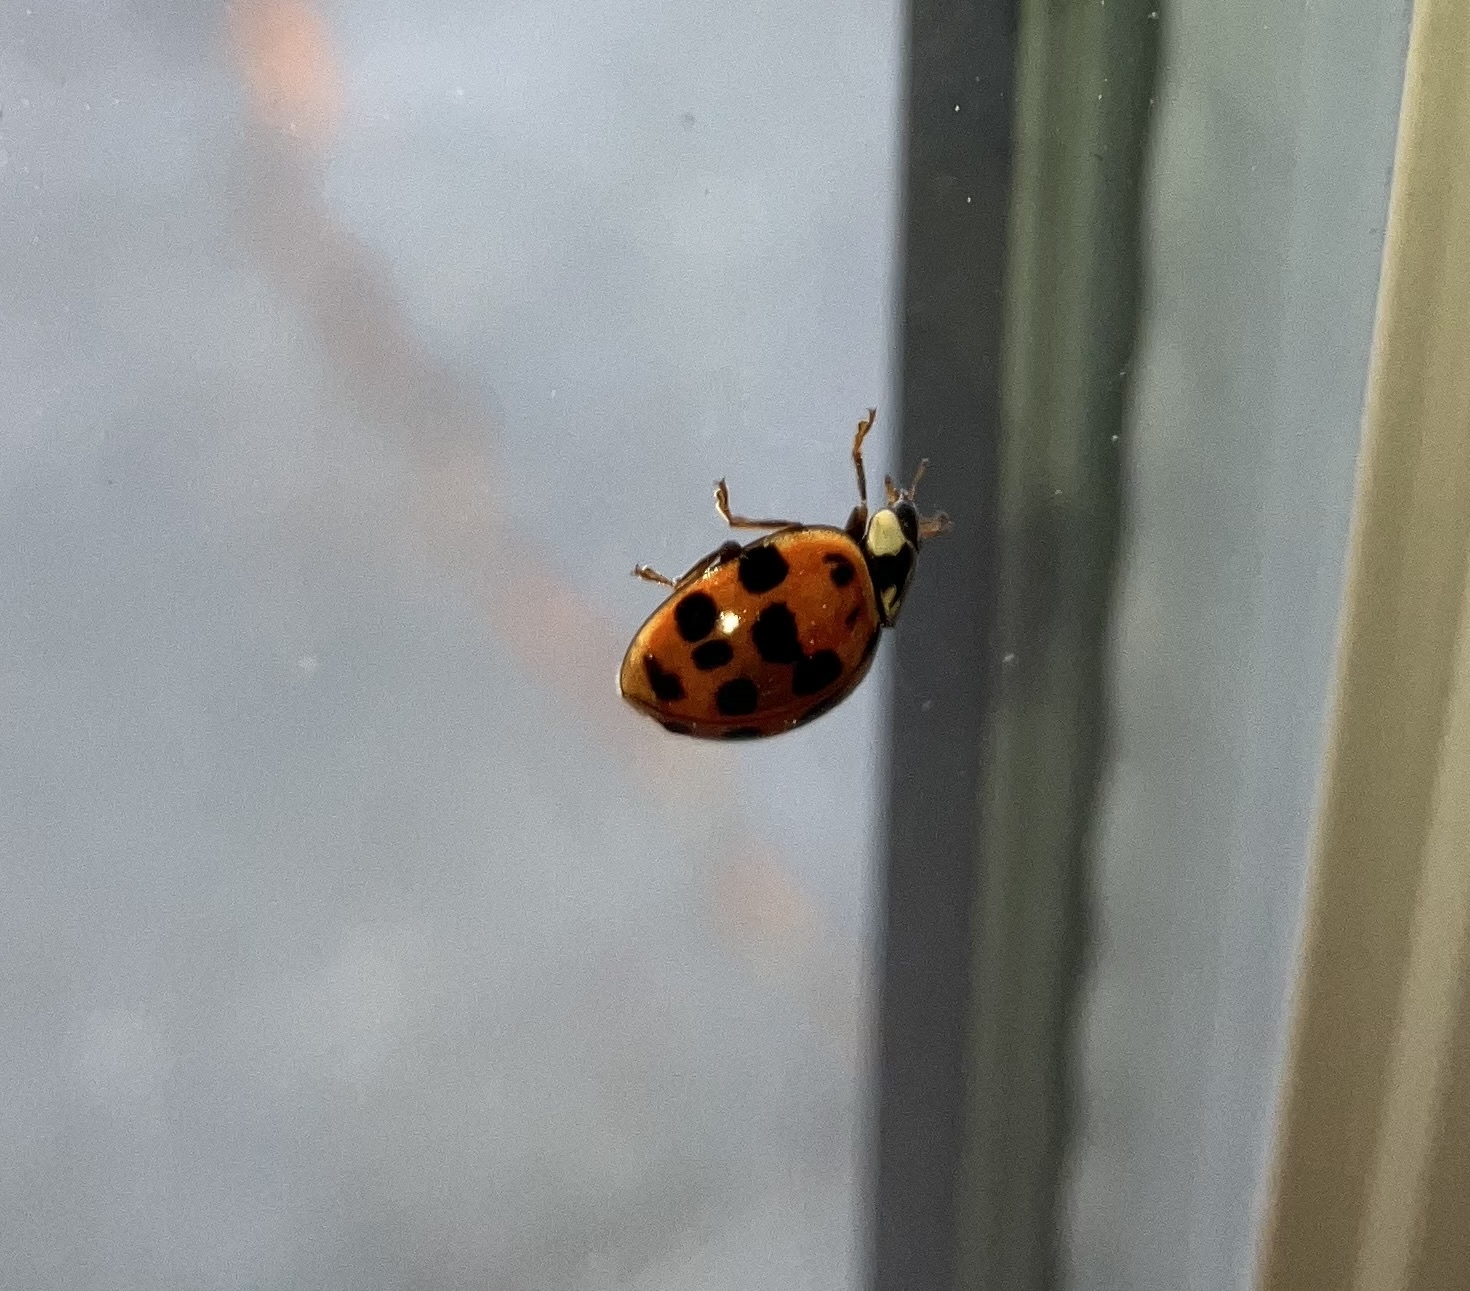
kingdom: Animalia
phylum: Arthropoda
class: Insecta
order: Coleoptera
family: Coccinellidae
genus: Harmonia
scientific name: Harmonia axyridis
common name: Harlequin ladybird
